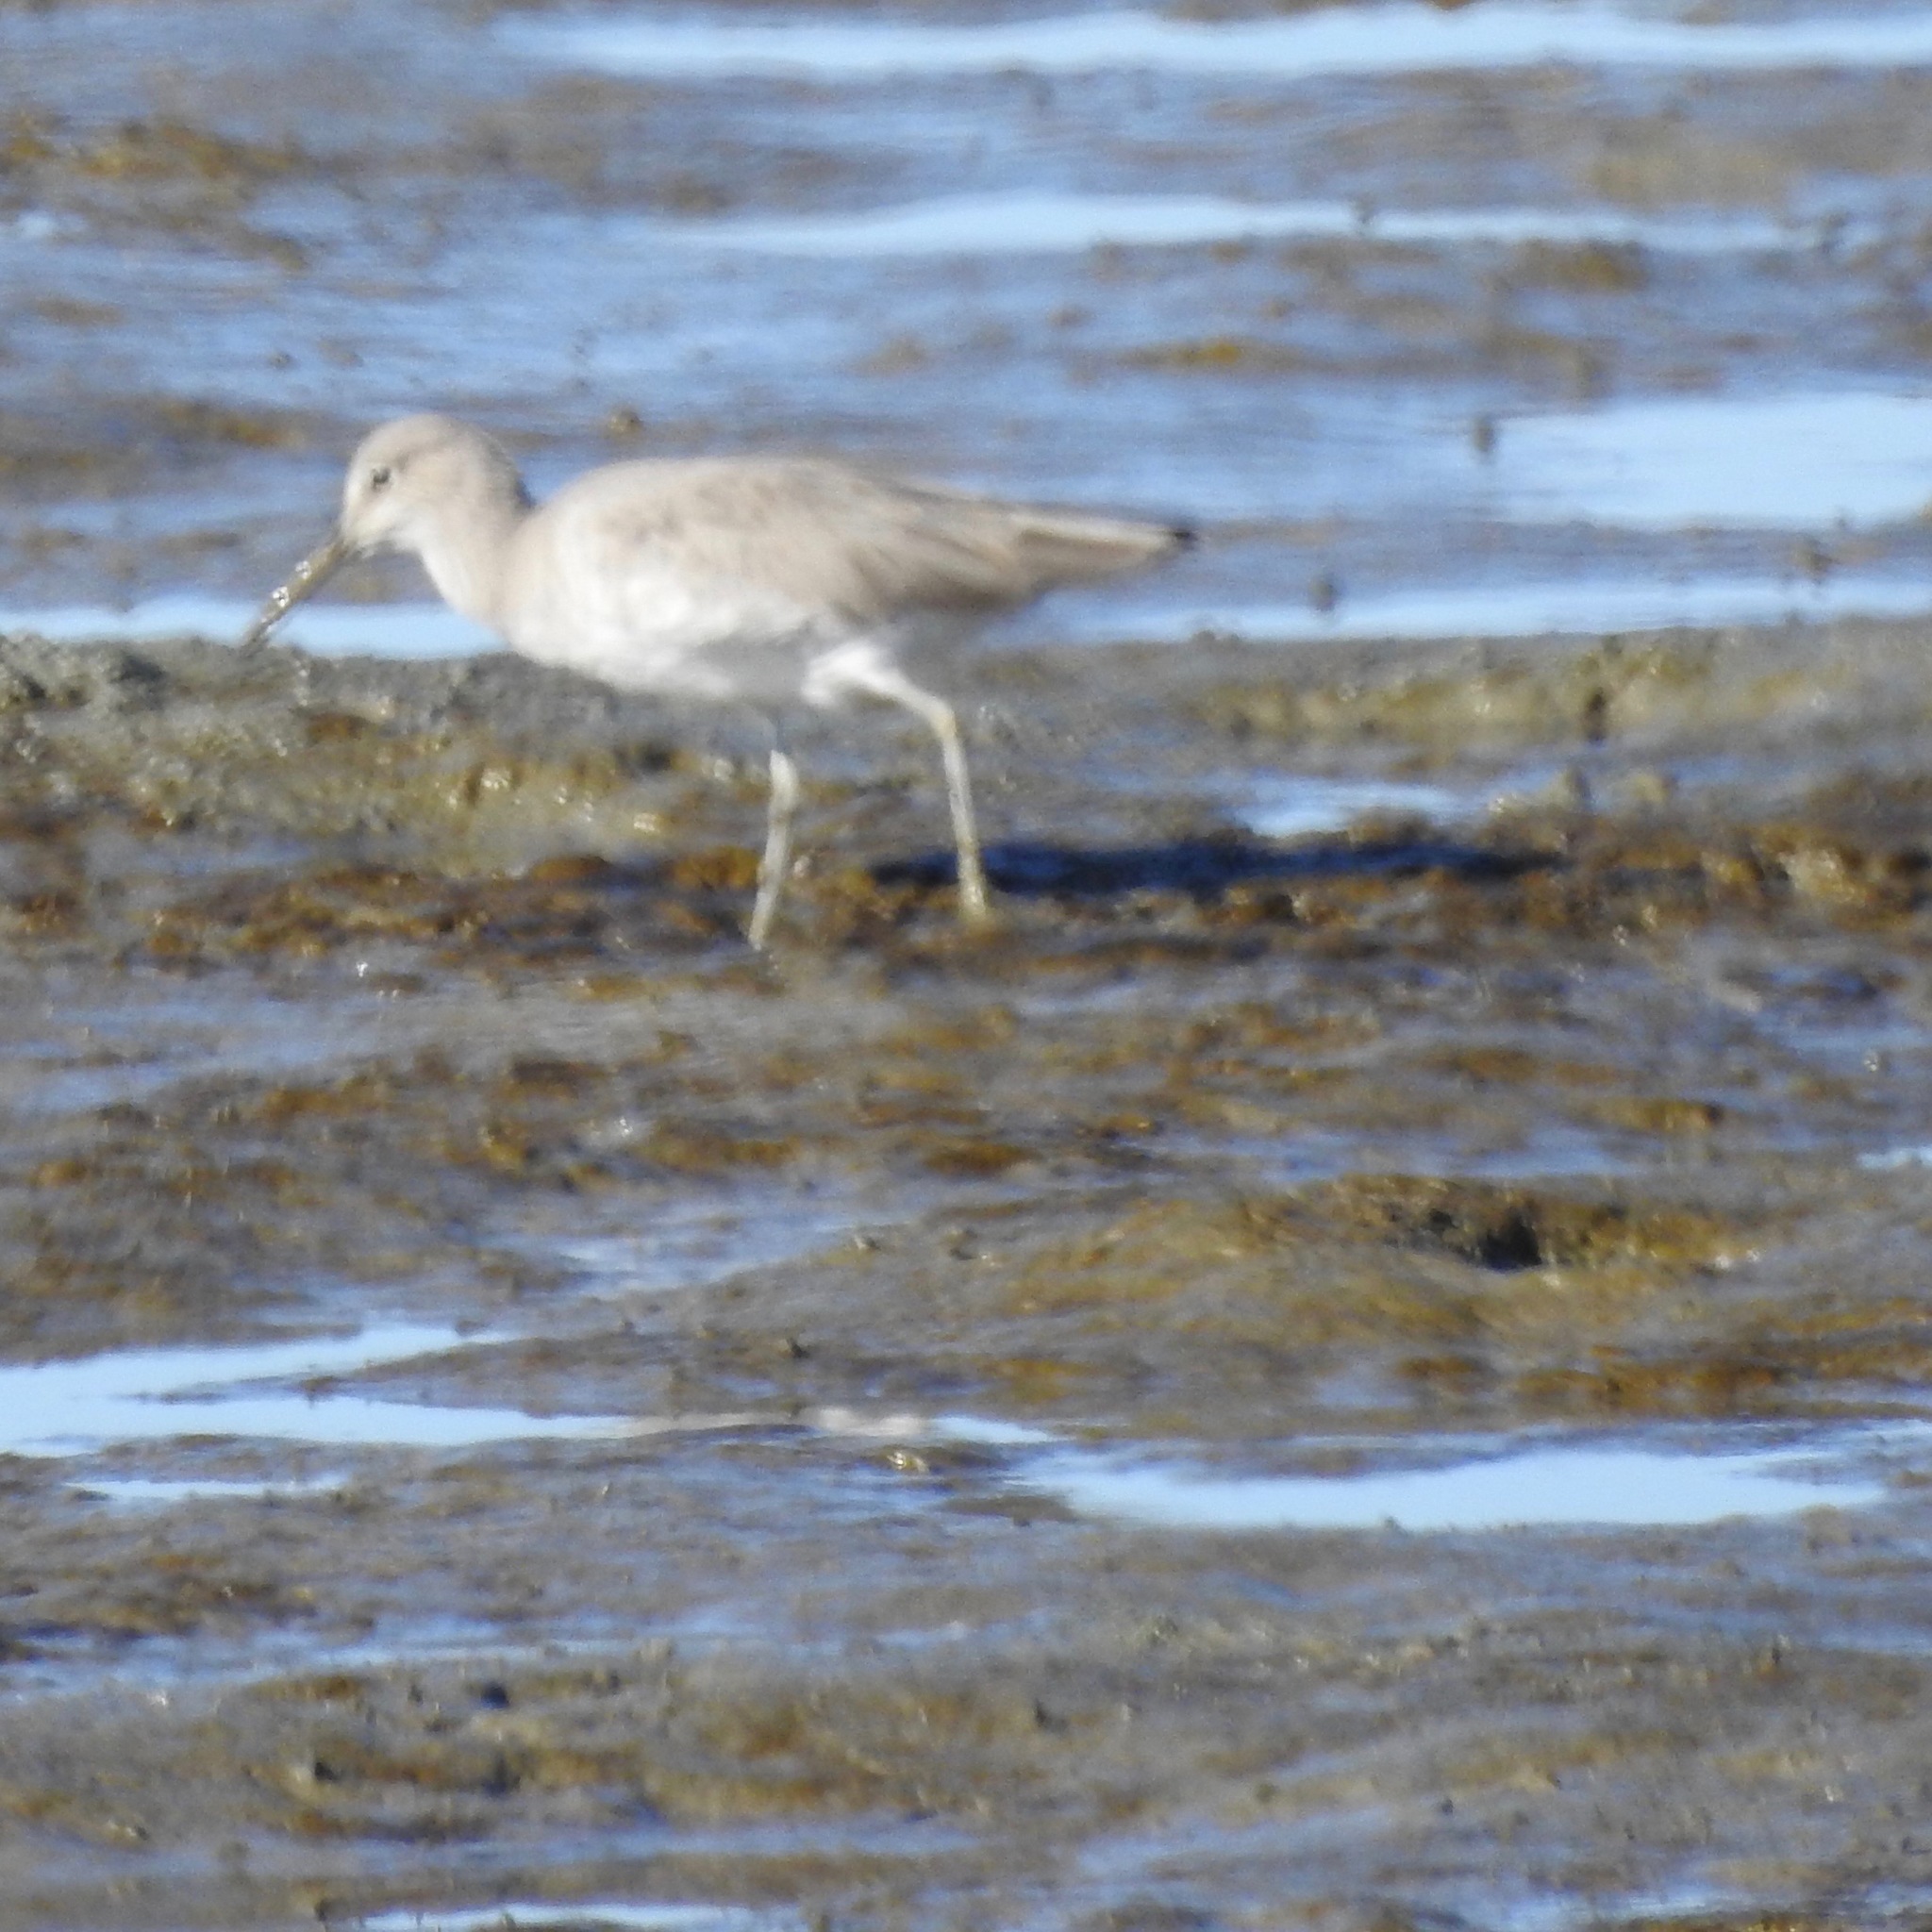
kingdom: Animalia
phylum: Chordata
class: Aves
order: Charadriiformes
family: Scolopacidae
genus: Tringa
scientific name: Tringa semipalmata
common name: Willet
